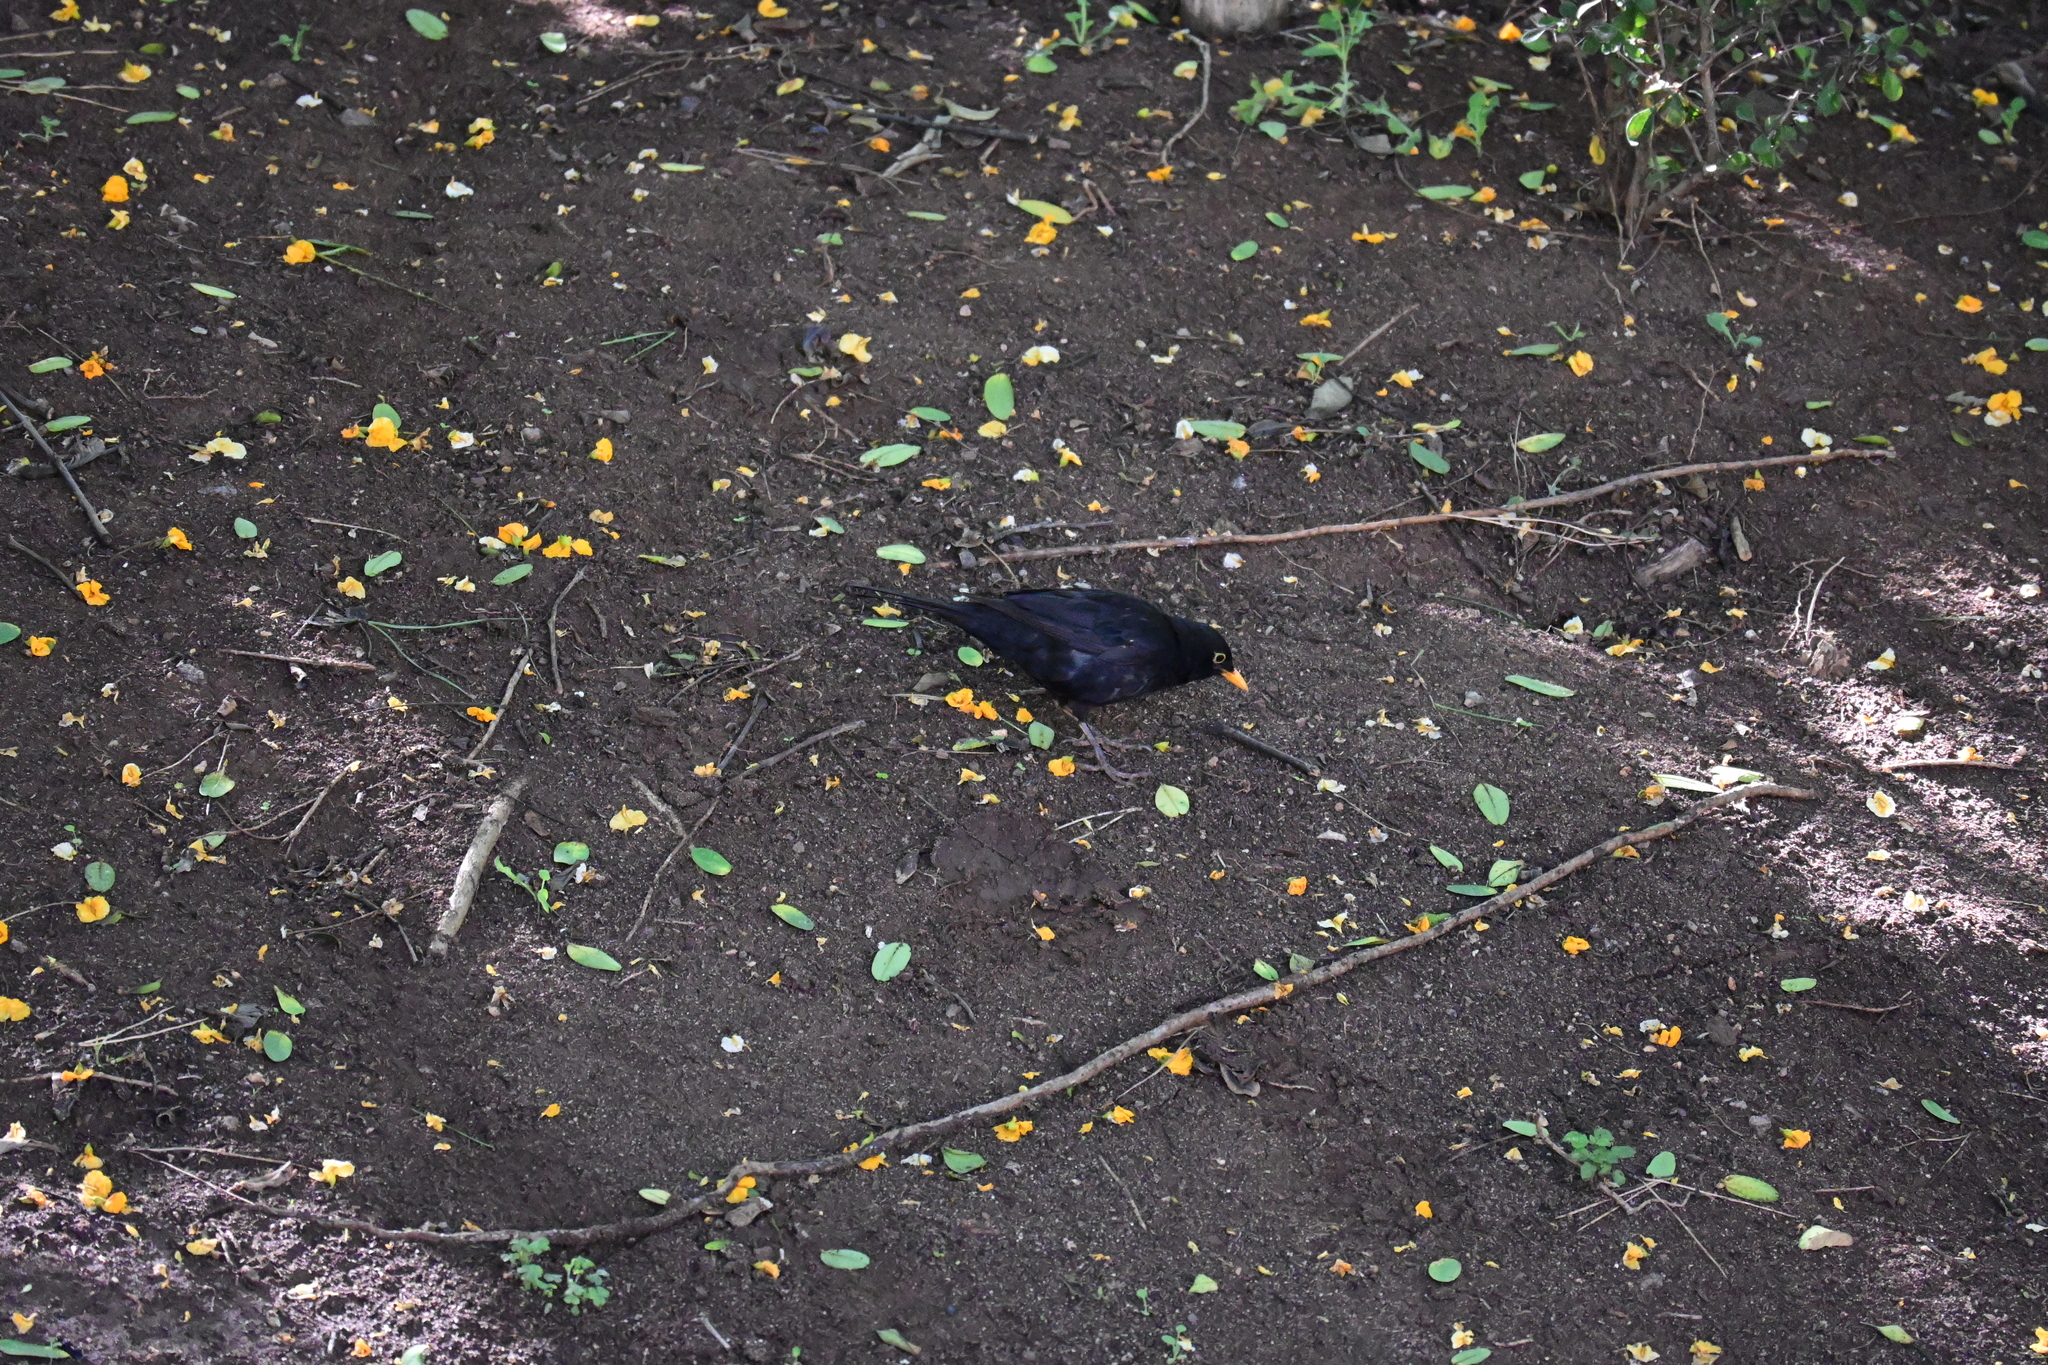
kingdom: Animalia
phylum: Chordata
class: Aves
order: Passeriformes
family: Turdidae
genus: Turdus
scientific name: Turdus merula
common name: Common blackbird
